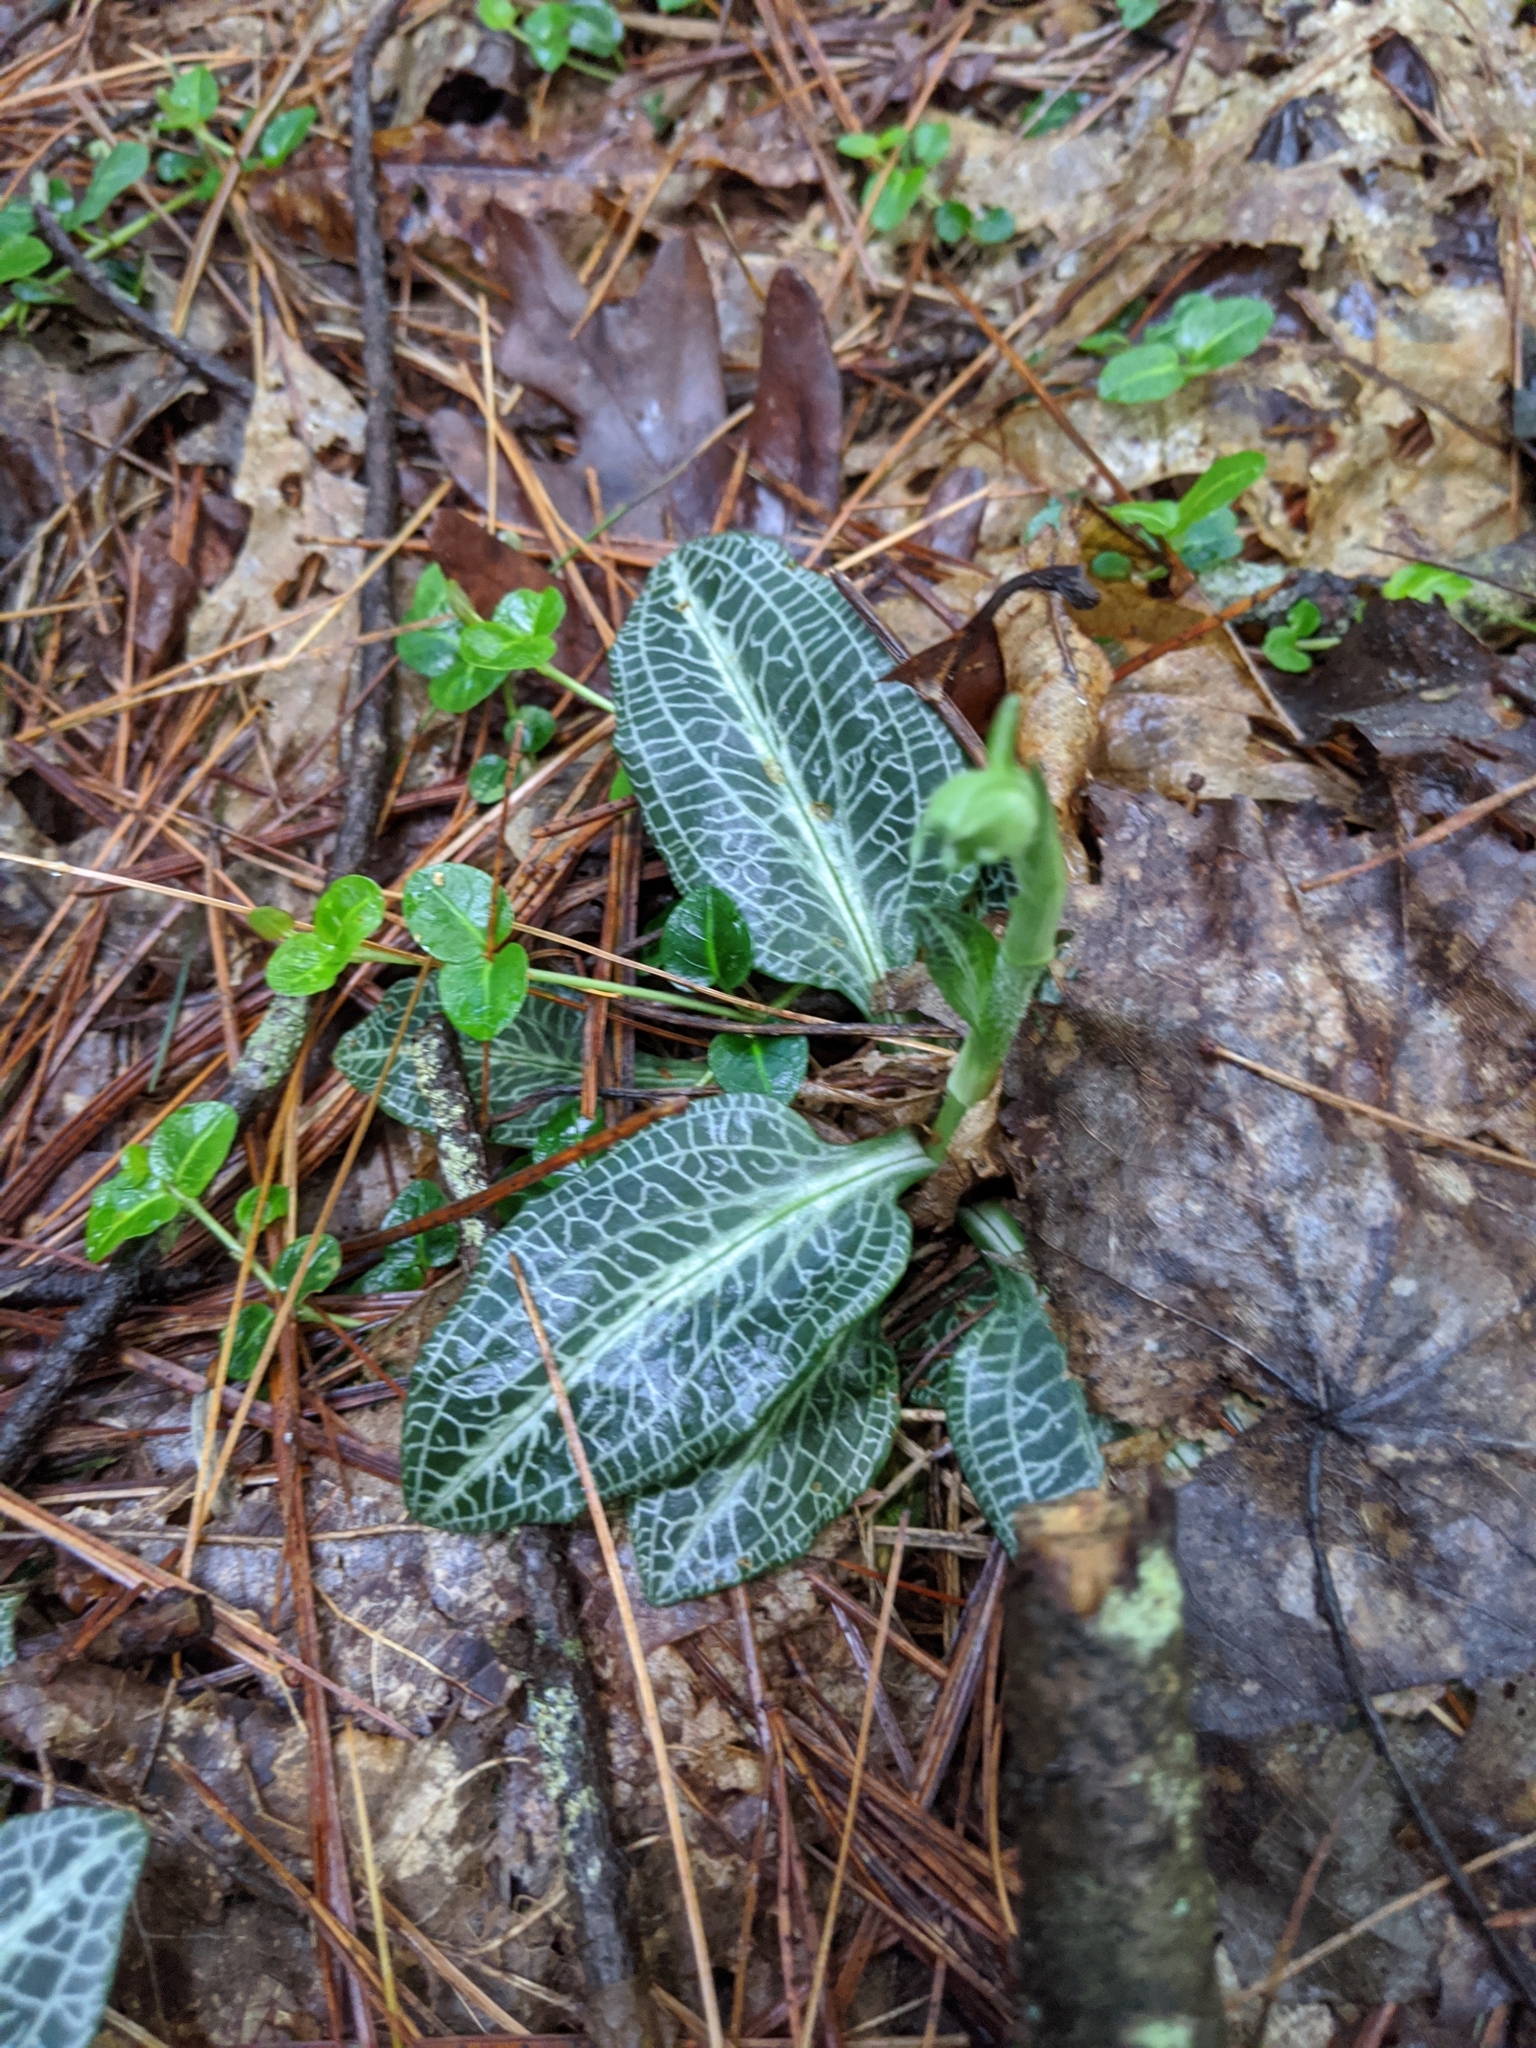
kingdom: Plantae
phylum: Tracheophyta
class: Liliopsida
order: Asparagales
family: Orchidaceae
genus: Goodyera
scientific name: Goodyera pubescens
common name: Downy rattlesnake-plantain
